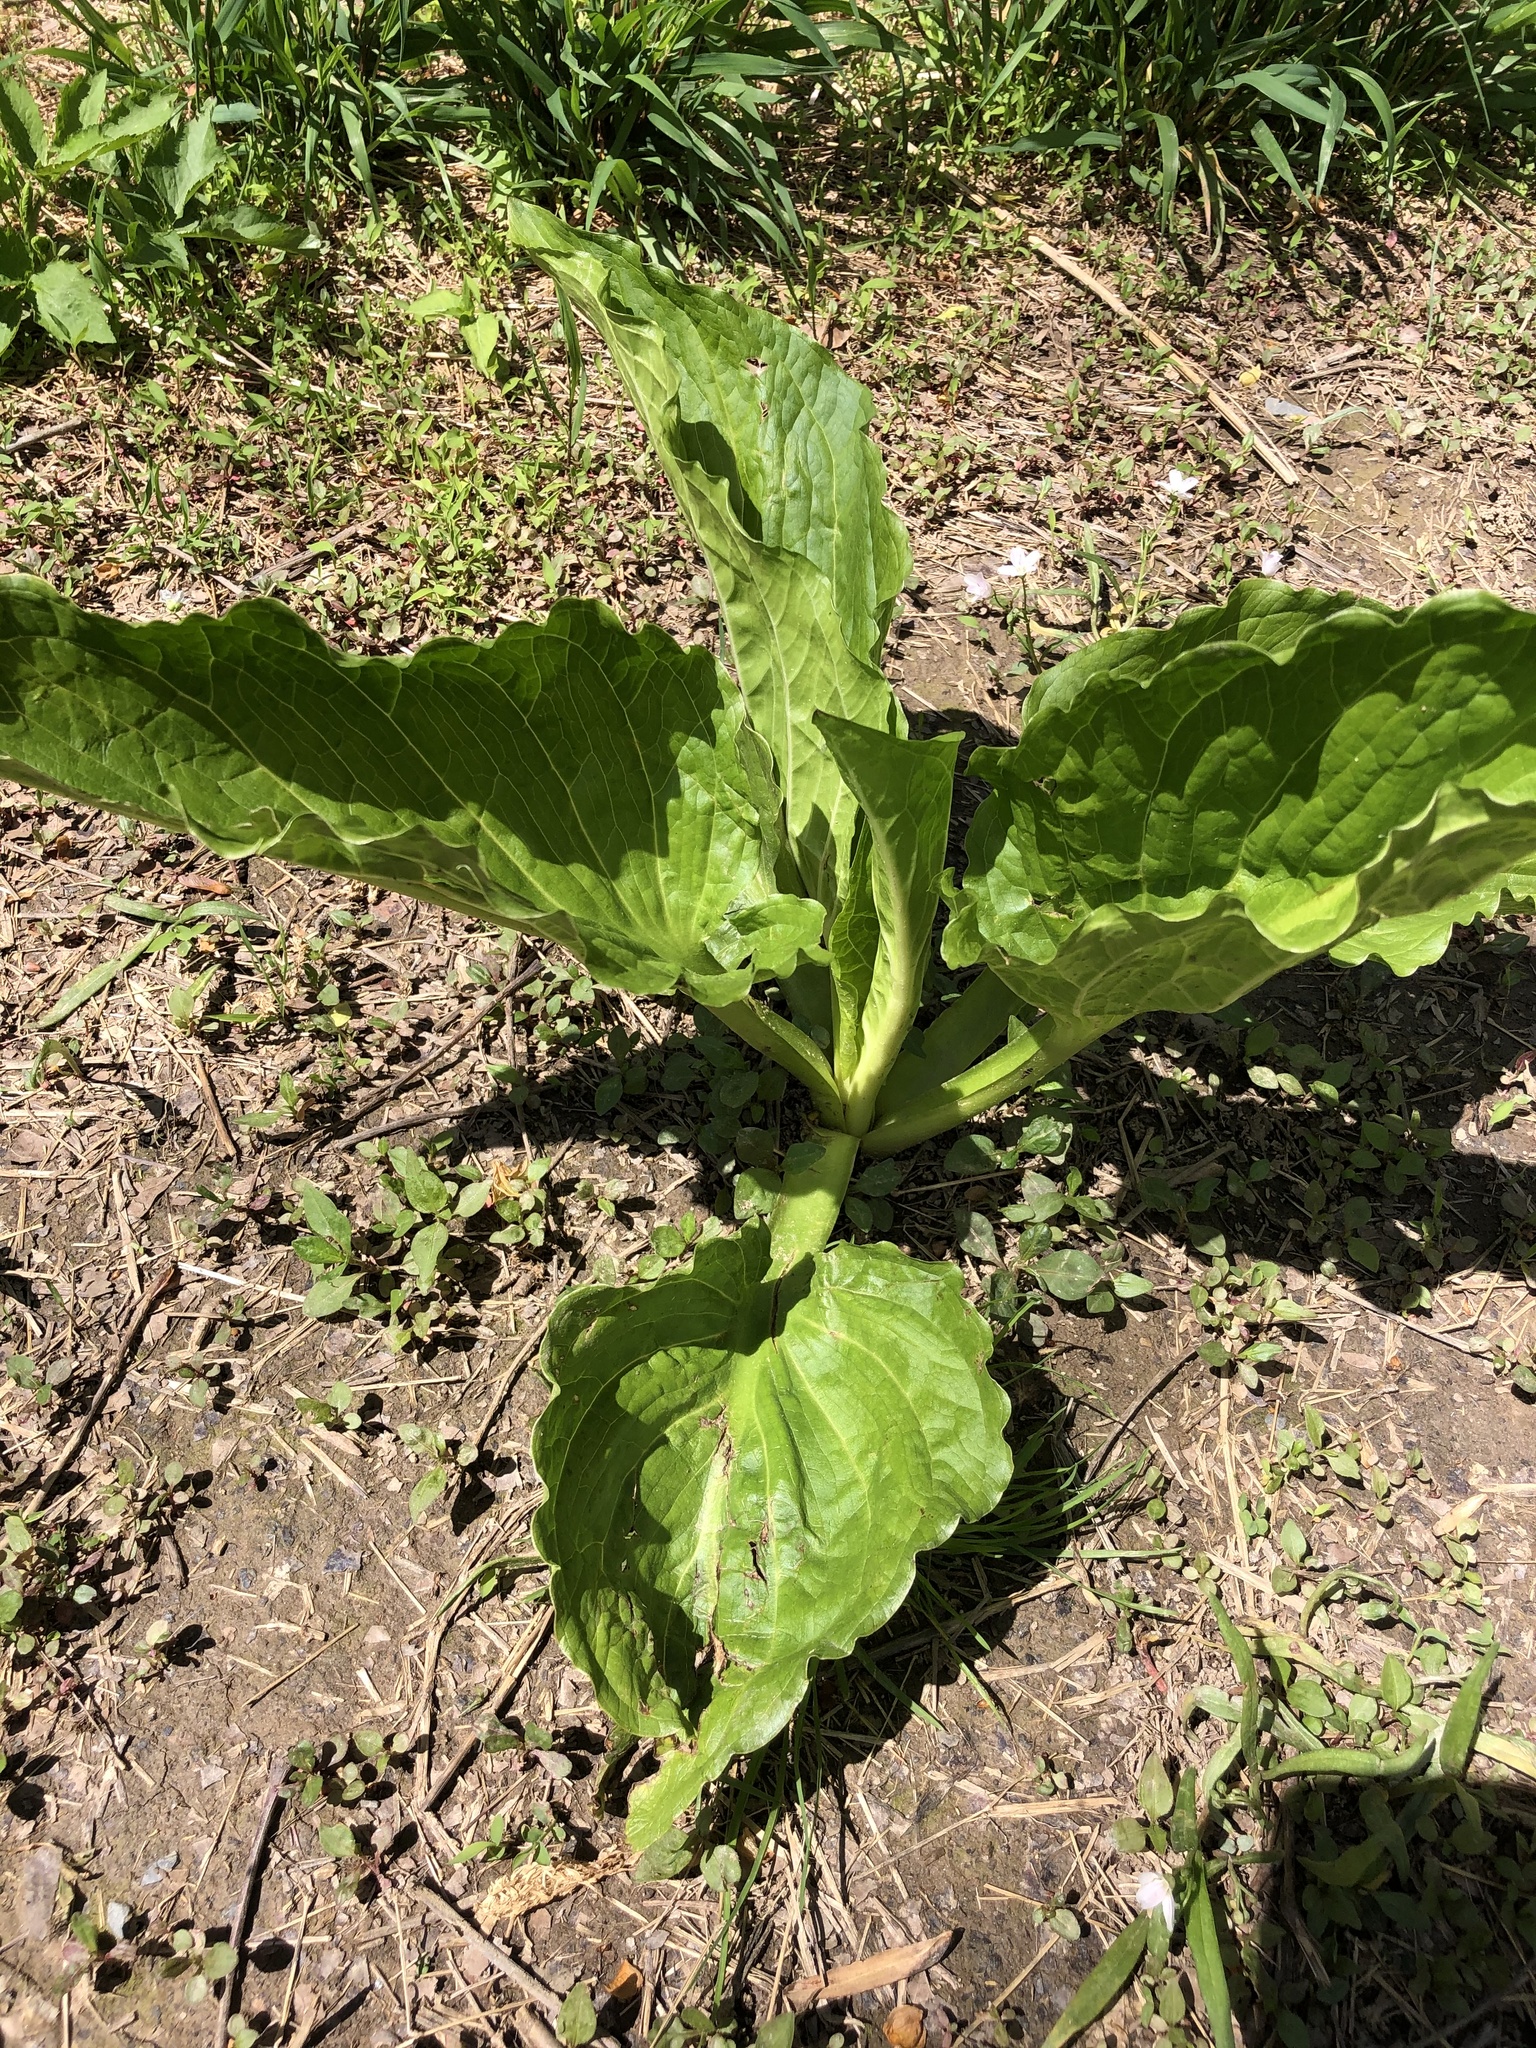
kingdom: Plantae
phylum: Tracheophyta
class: Liliopsida
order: Alismatales
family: Araceae
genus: Symplocarpus
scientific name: Symplocarpus foetidus
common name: Eastern skunk cabbage
